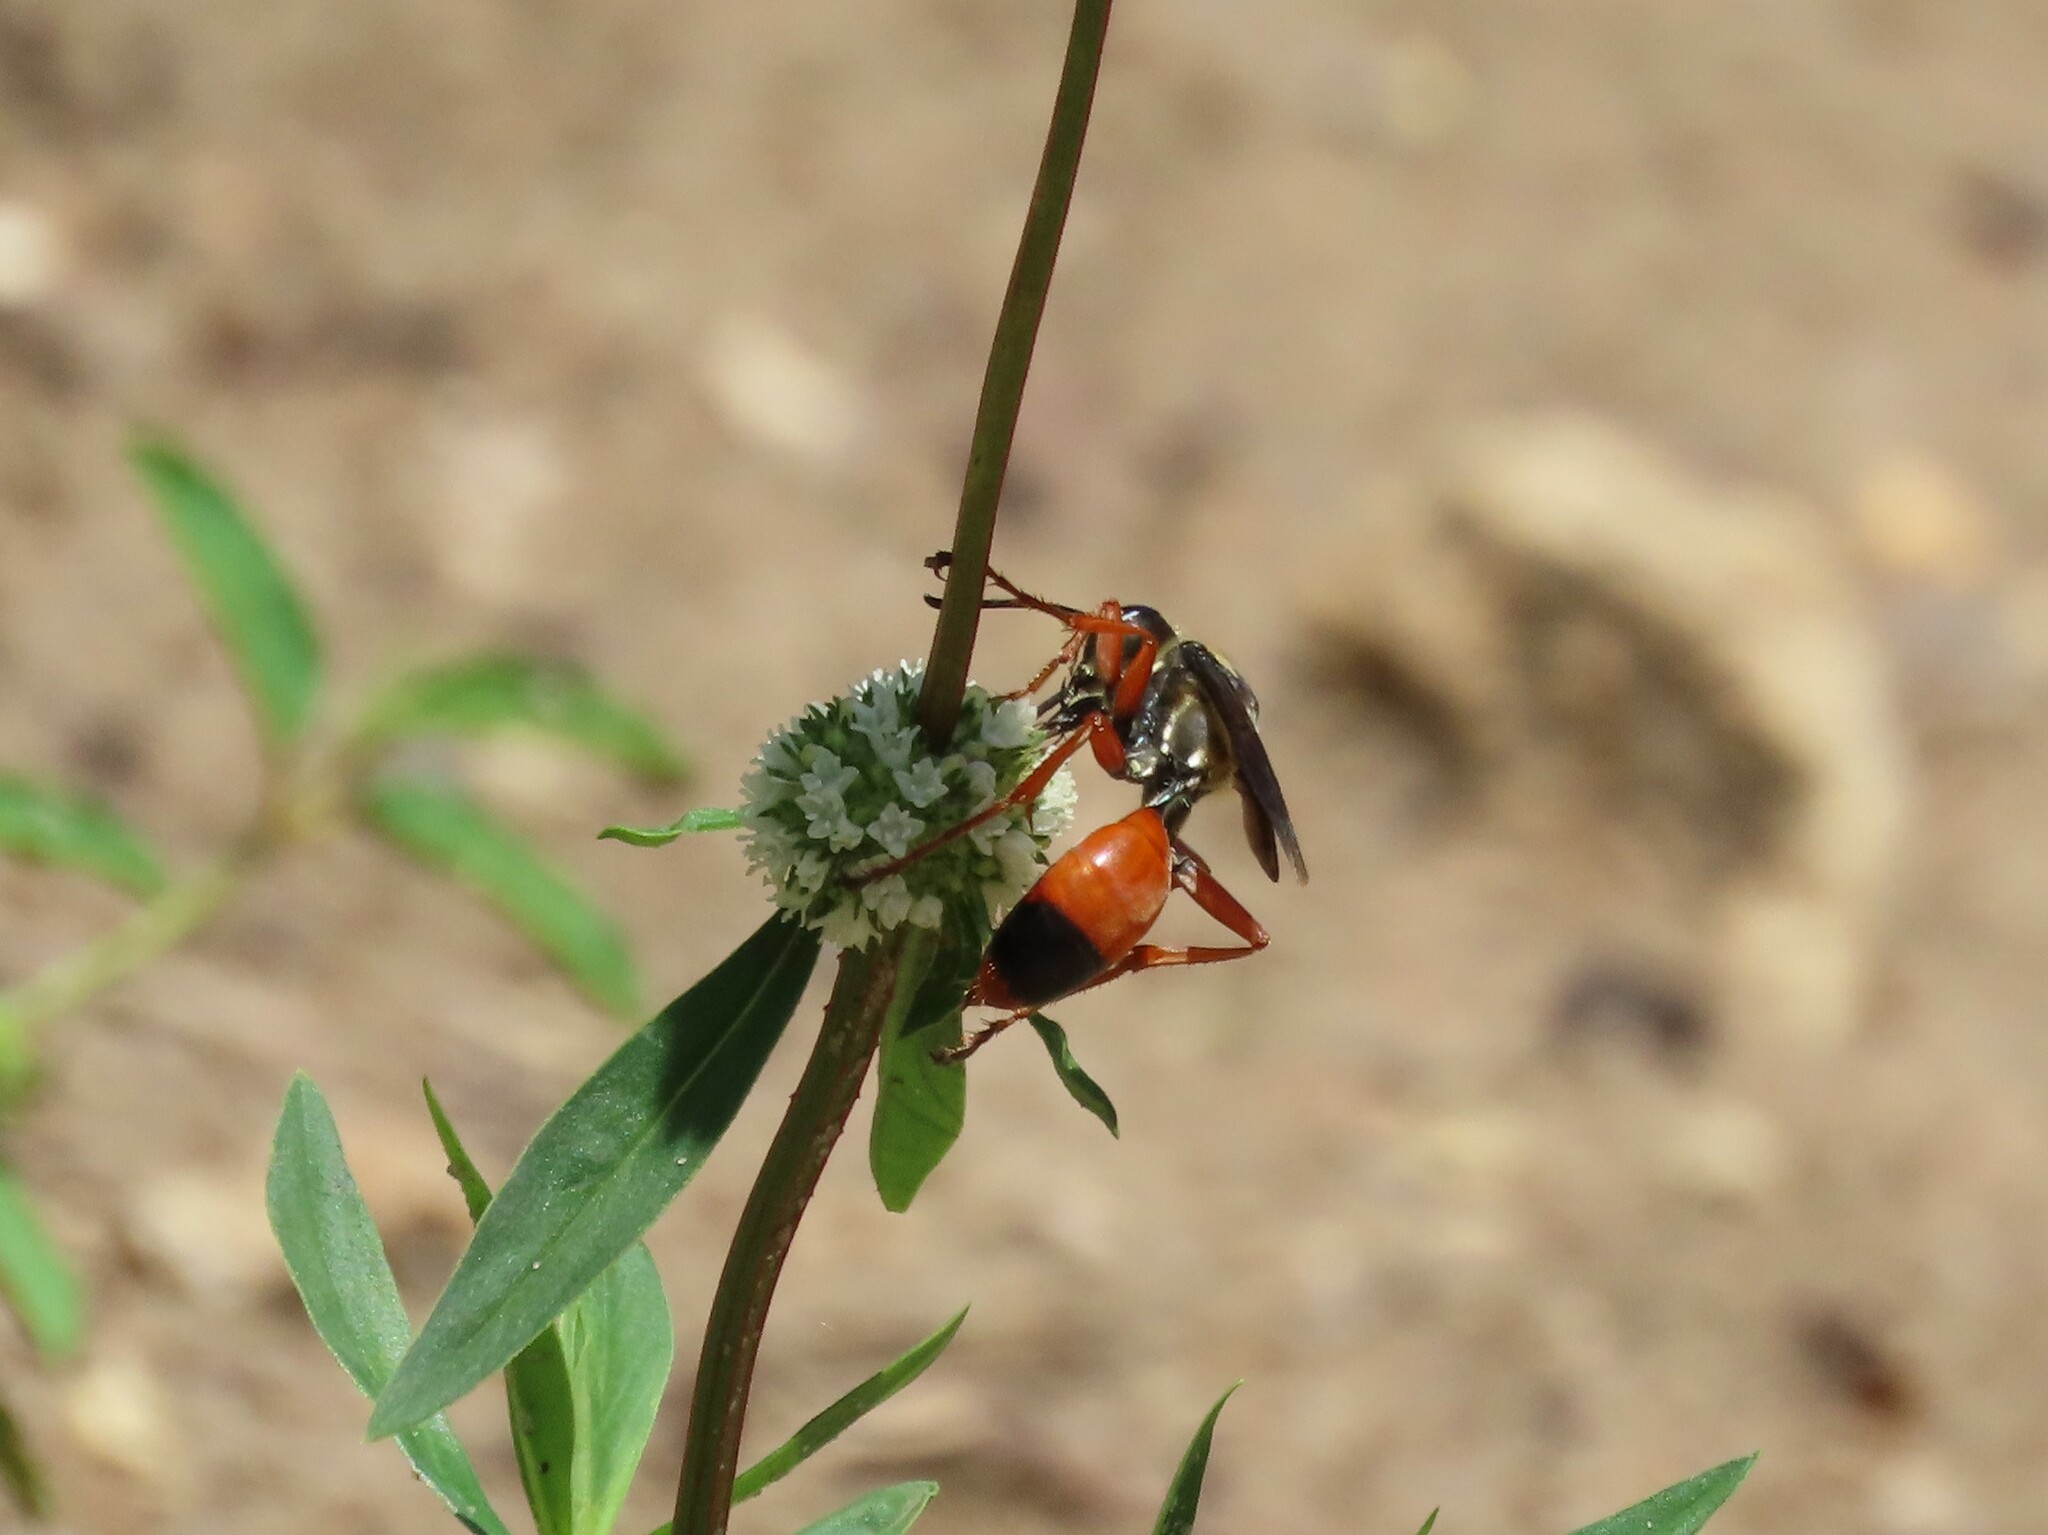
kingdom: Animalia
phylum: Arthropoda
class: Insecta
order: Hymenoptera
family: Sphecidae
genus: Sphex
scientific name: Sphex dorsalis
